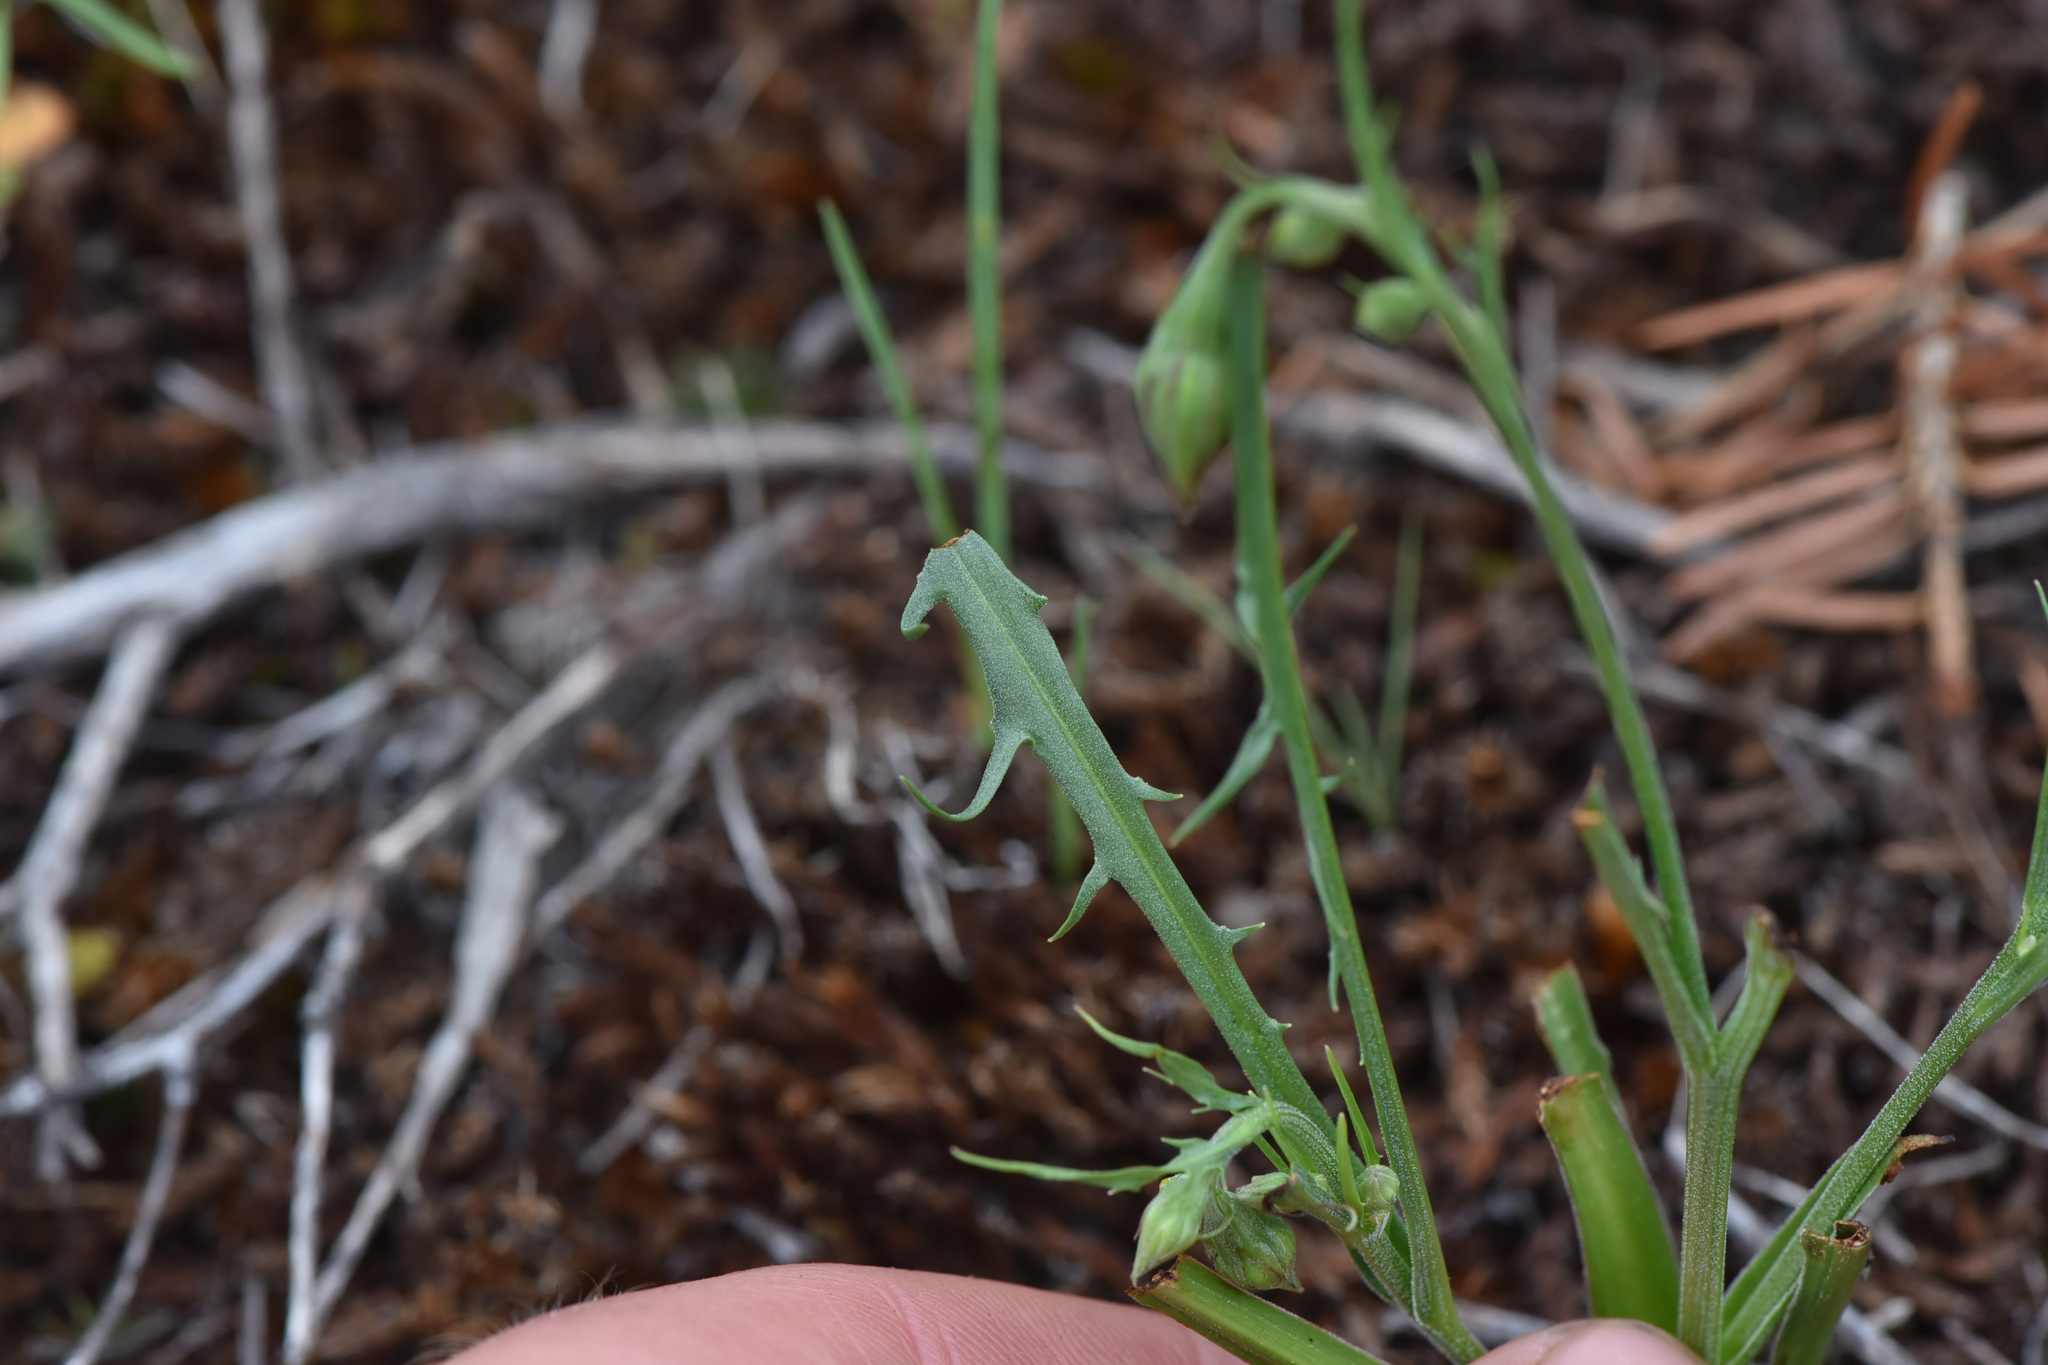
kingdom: Plantae
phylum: Tracheophyta
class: Magnoliopsida
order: Asterales
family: Asteraceae
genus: Crepis
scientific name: Crepis atribarba
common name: Dark hawk's-beard
